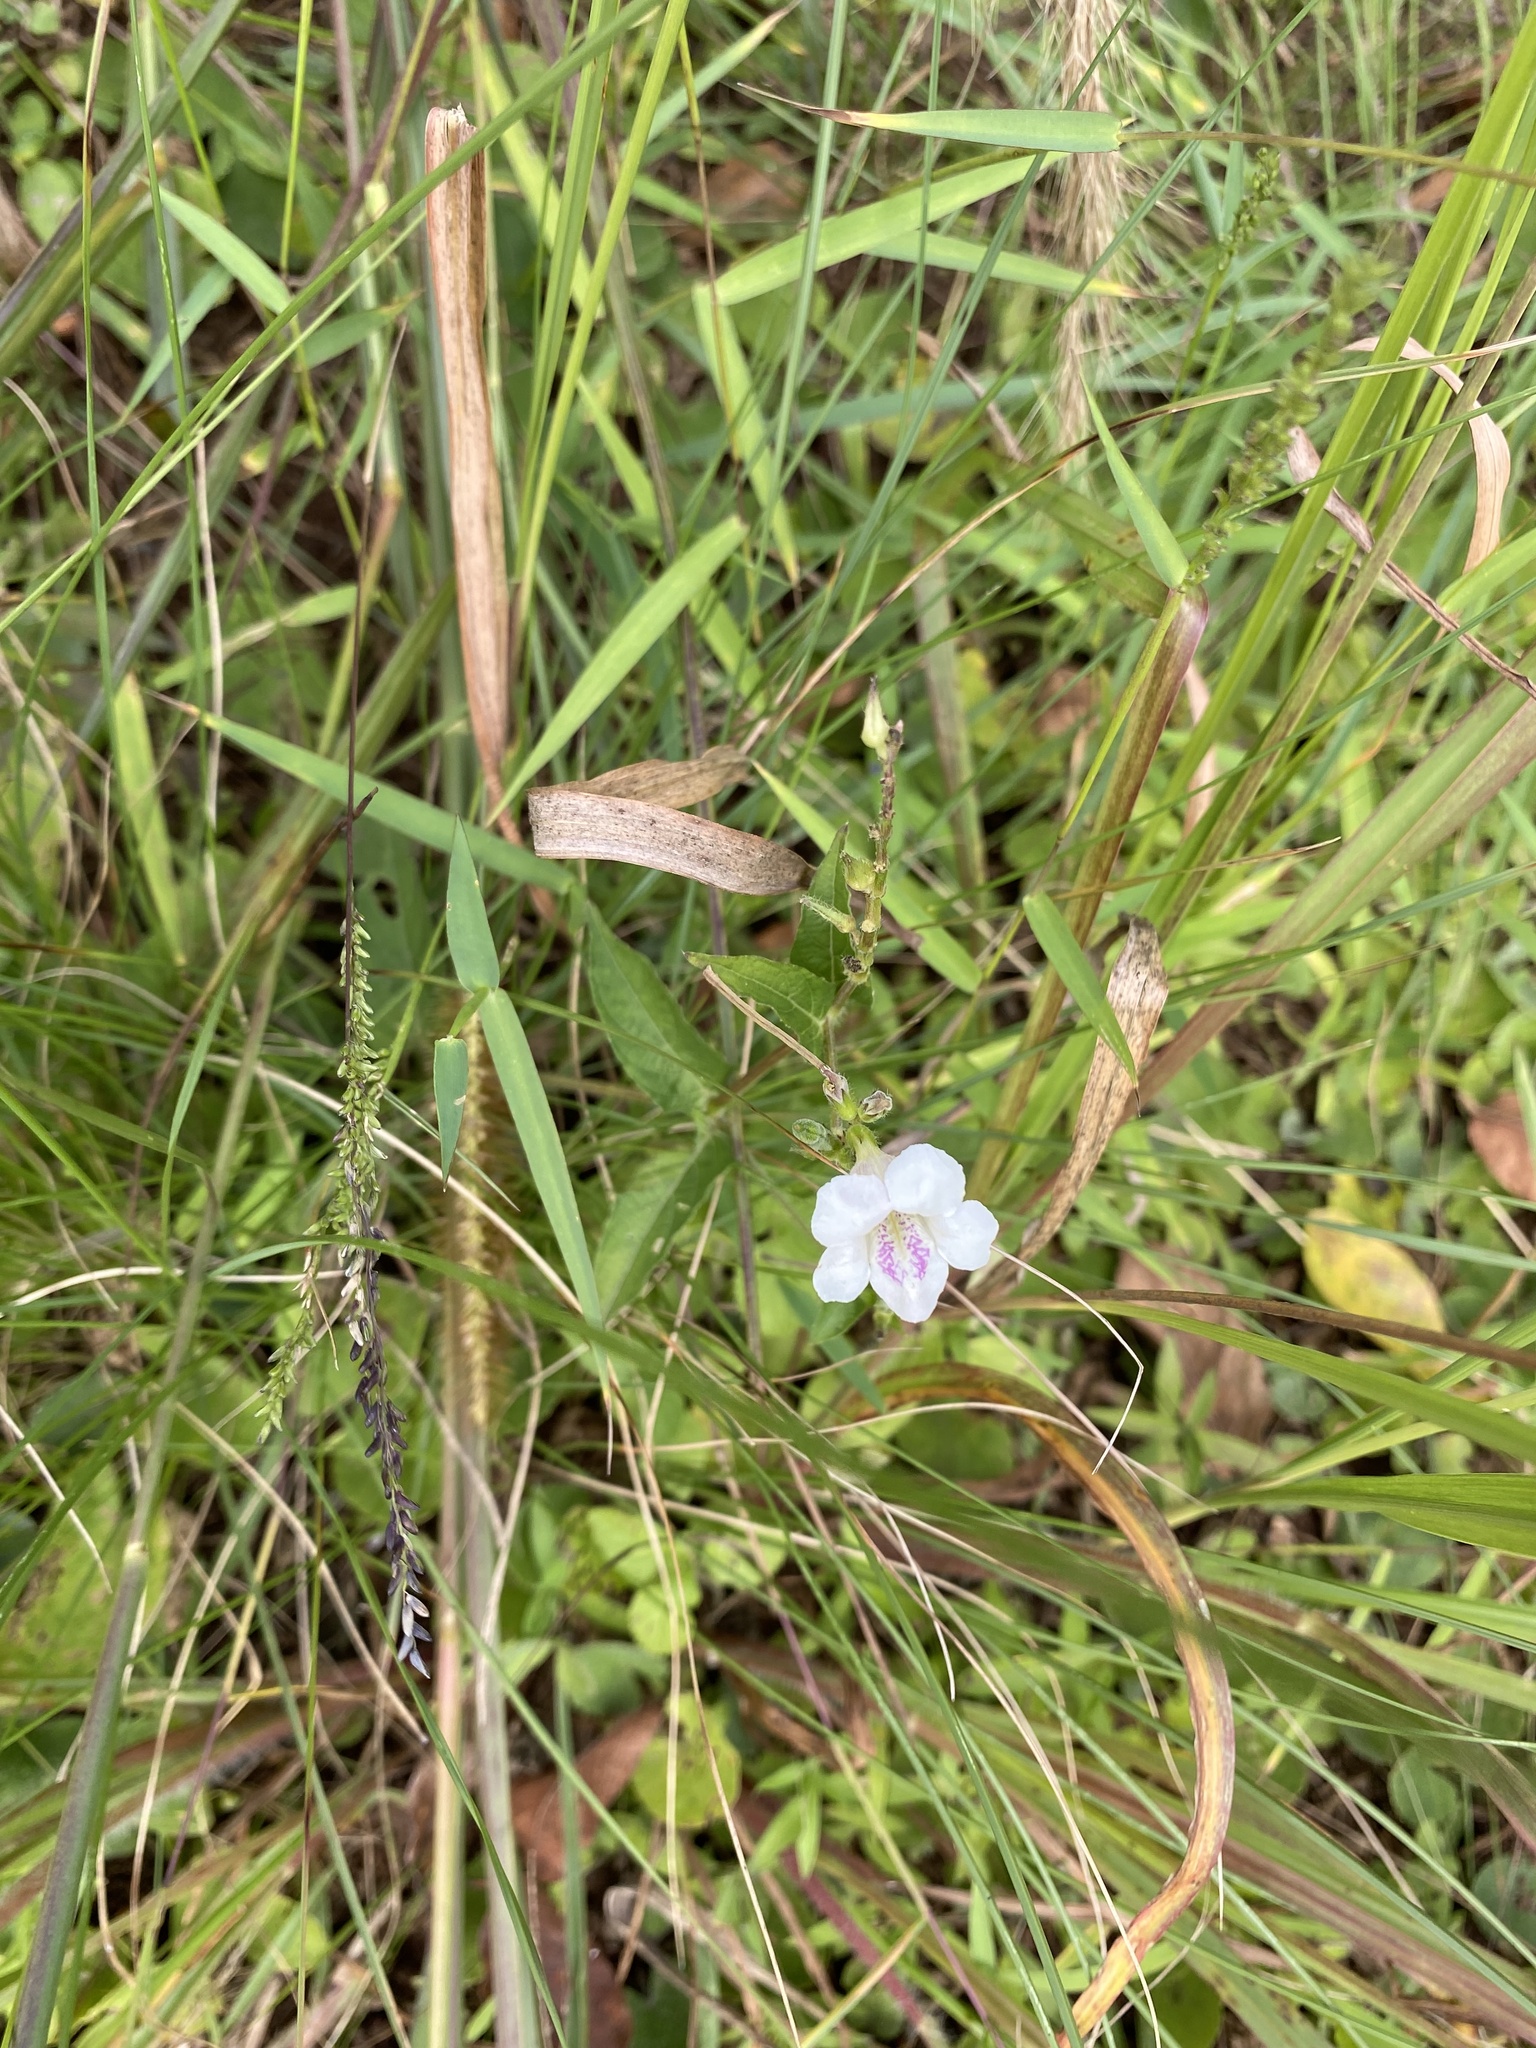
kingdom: Plantae
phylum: Tracheophyta
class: Magnoliopsida
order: Lamiales
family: Acanthaceae
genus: Asystasia
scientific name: Asystasia intrusa
